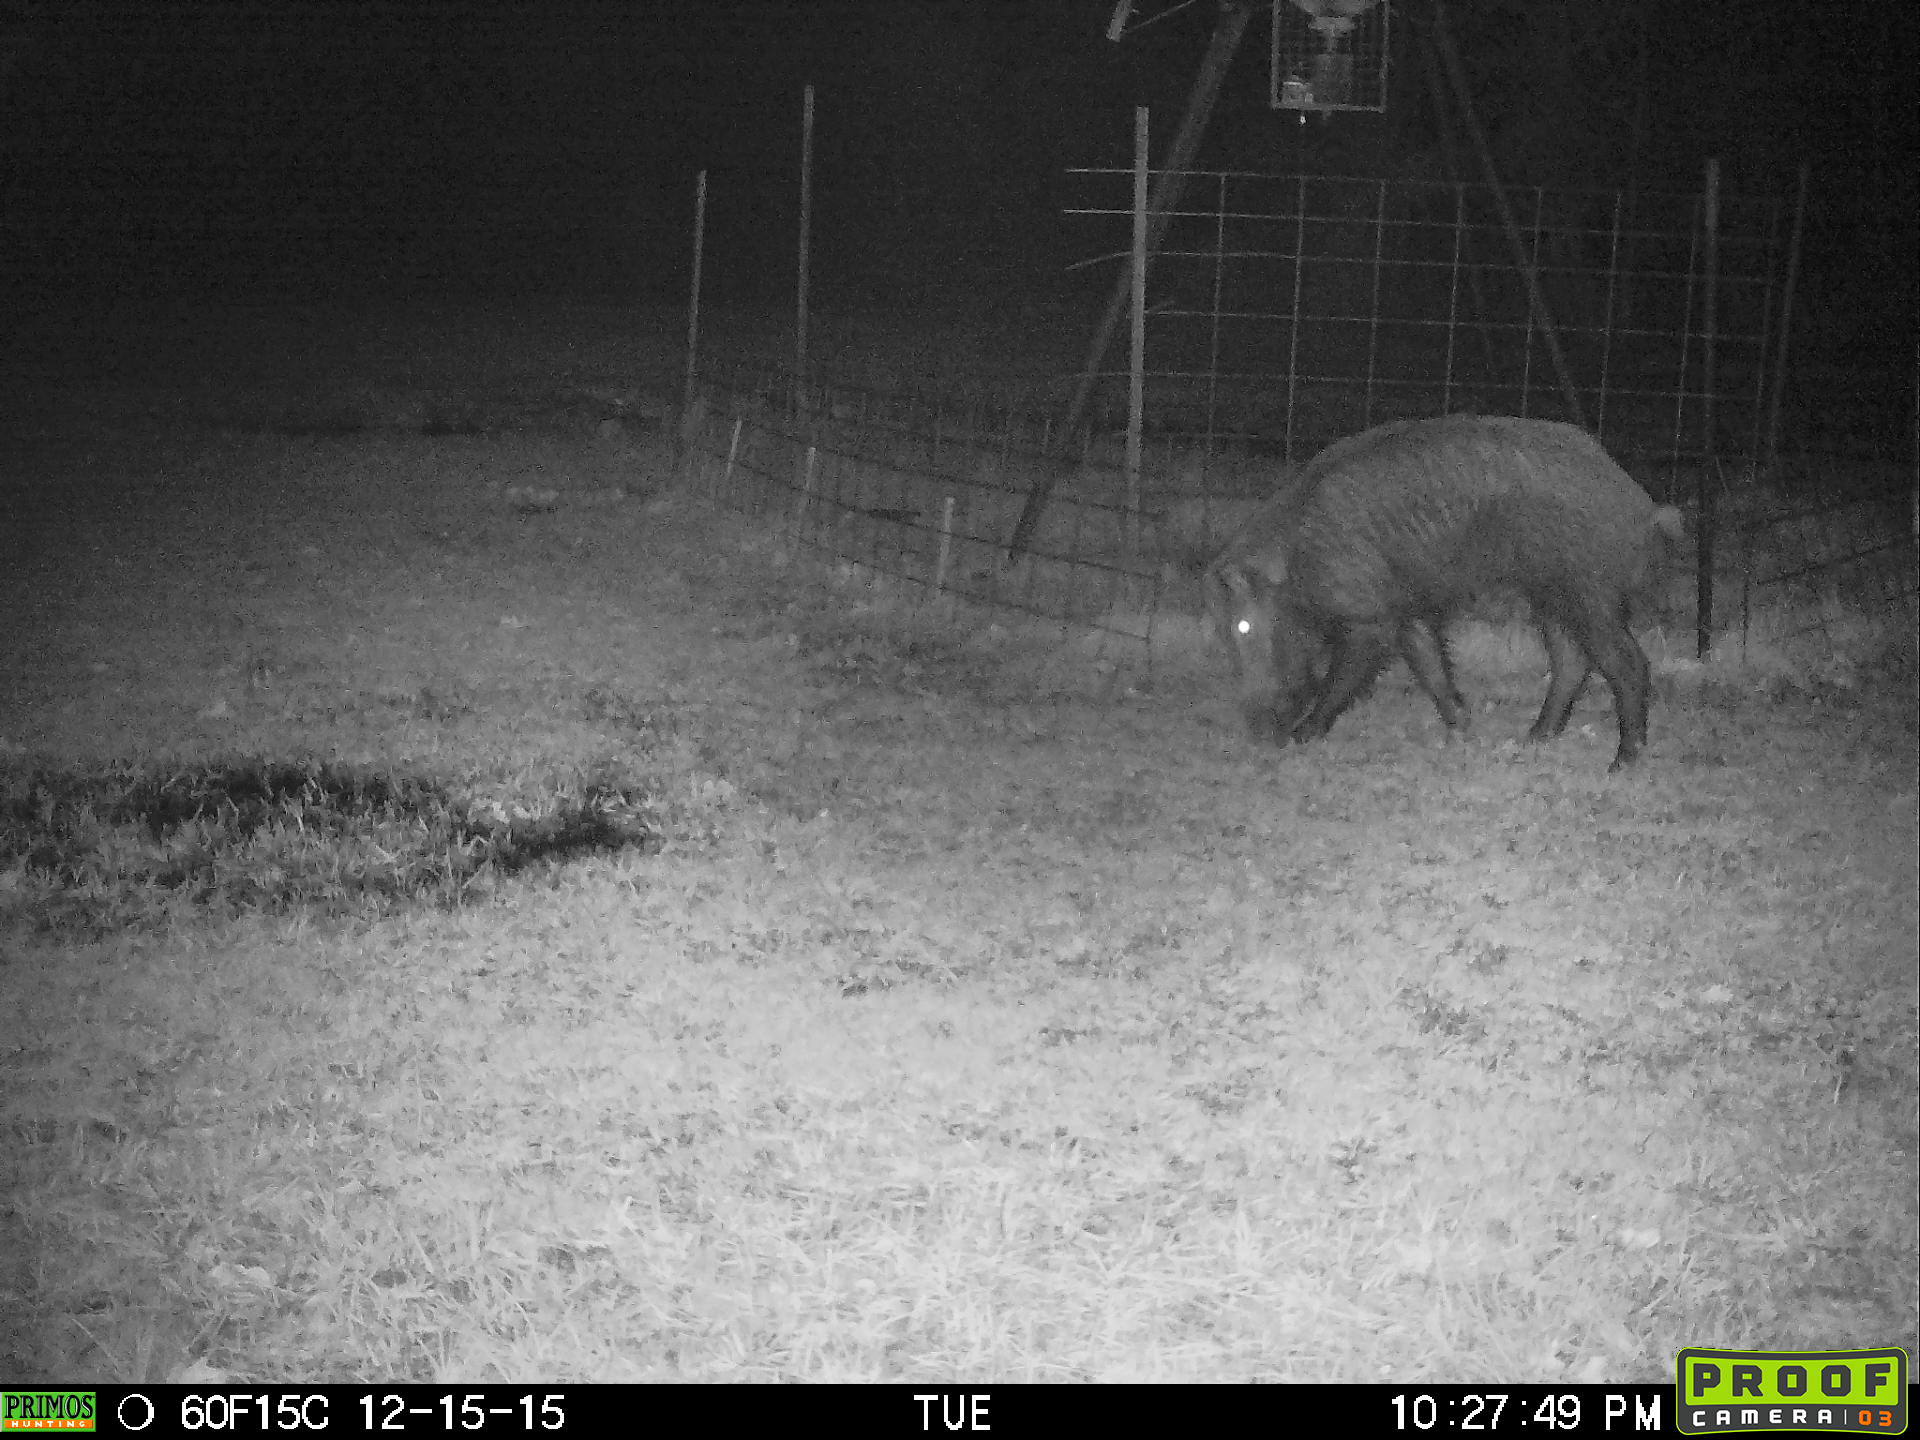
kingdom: Animalia
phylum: Chordata
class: Mammalia
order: Artiodactyla
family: Suidae
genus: Sus
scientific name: Sus scrofa
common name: Wild boar
